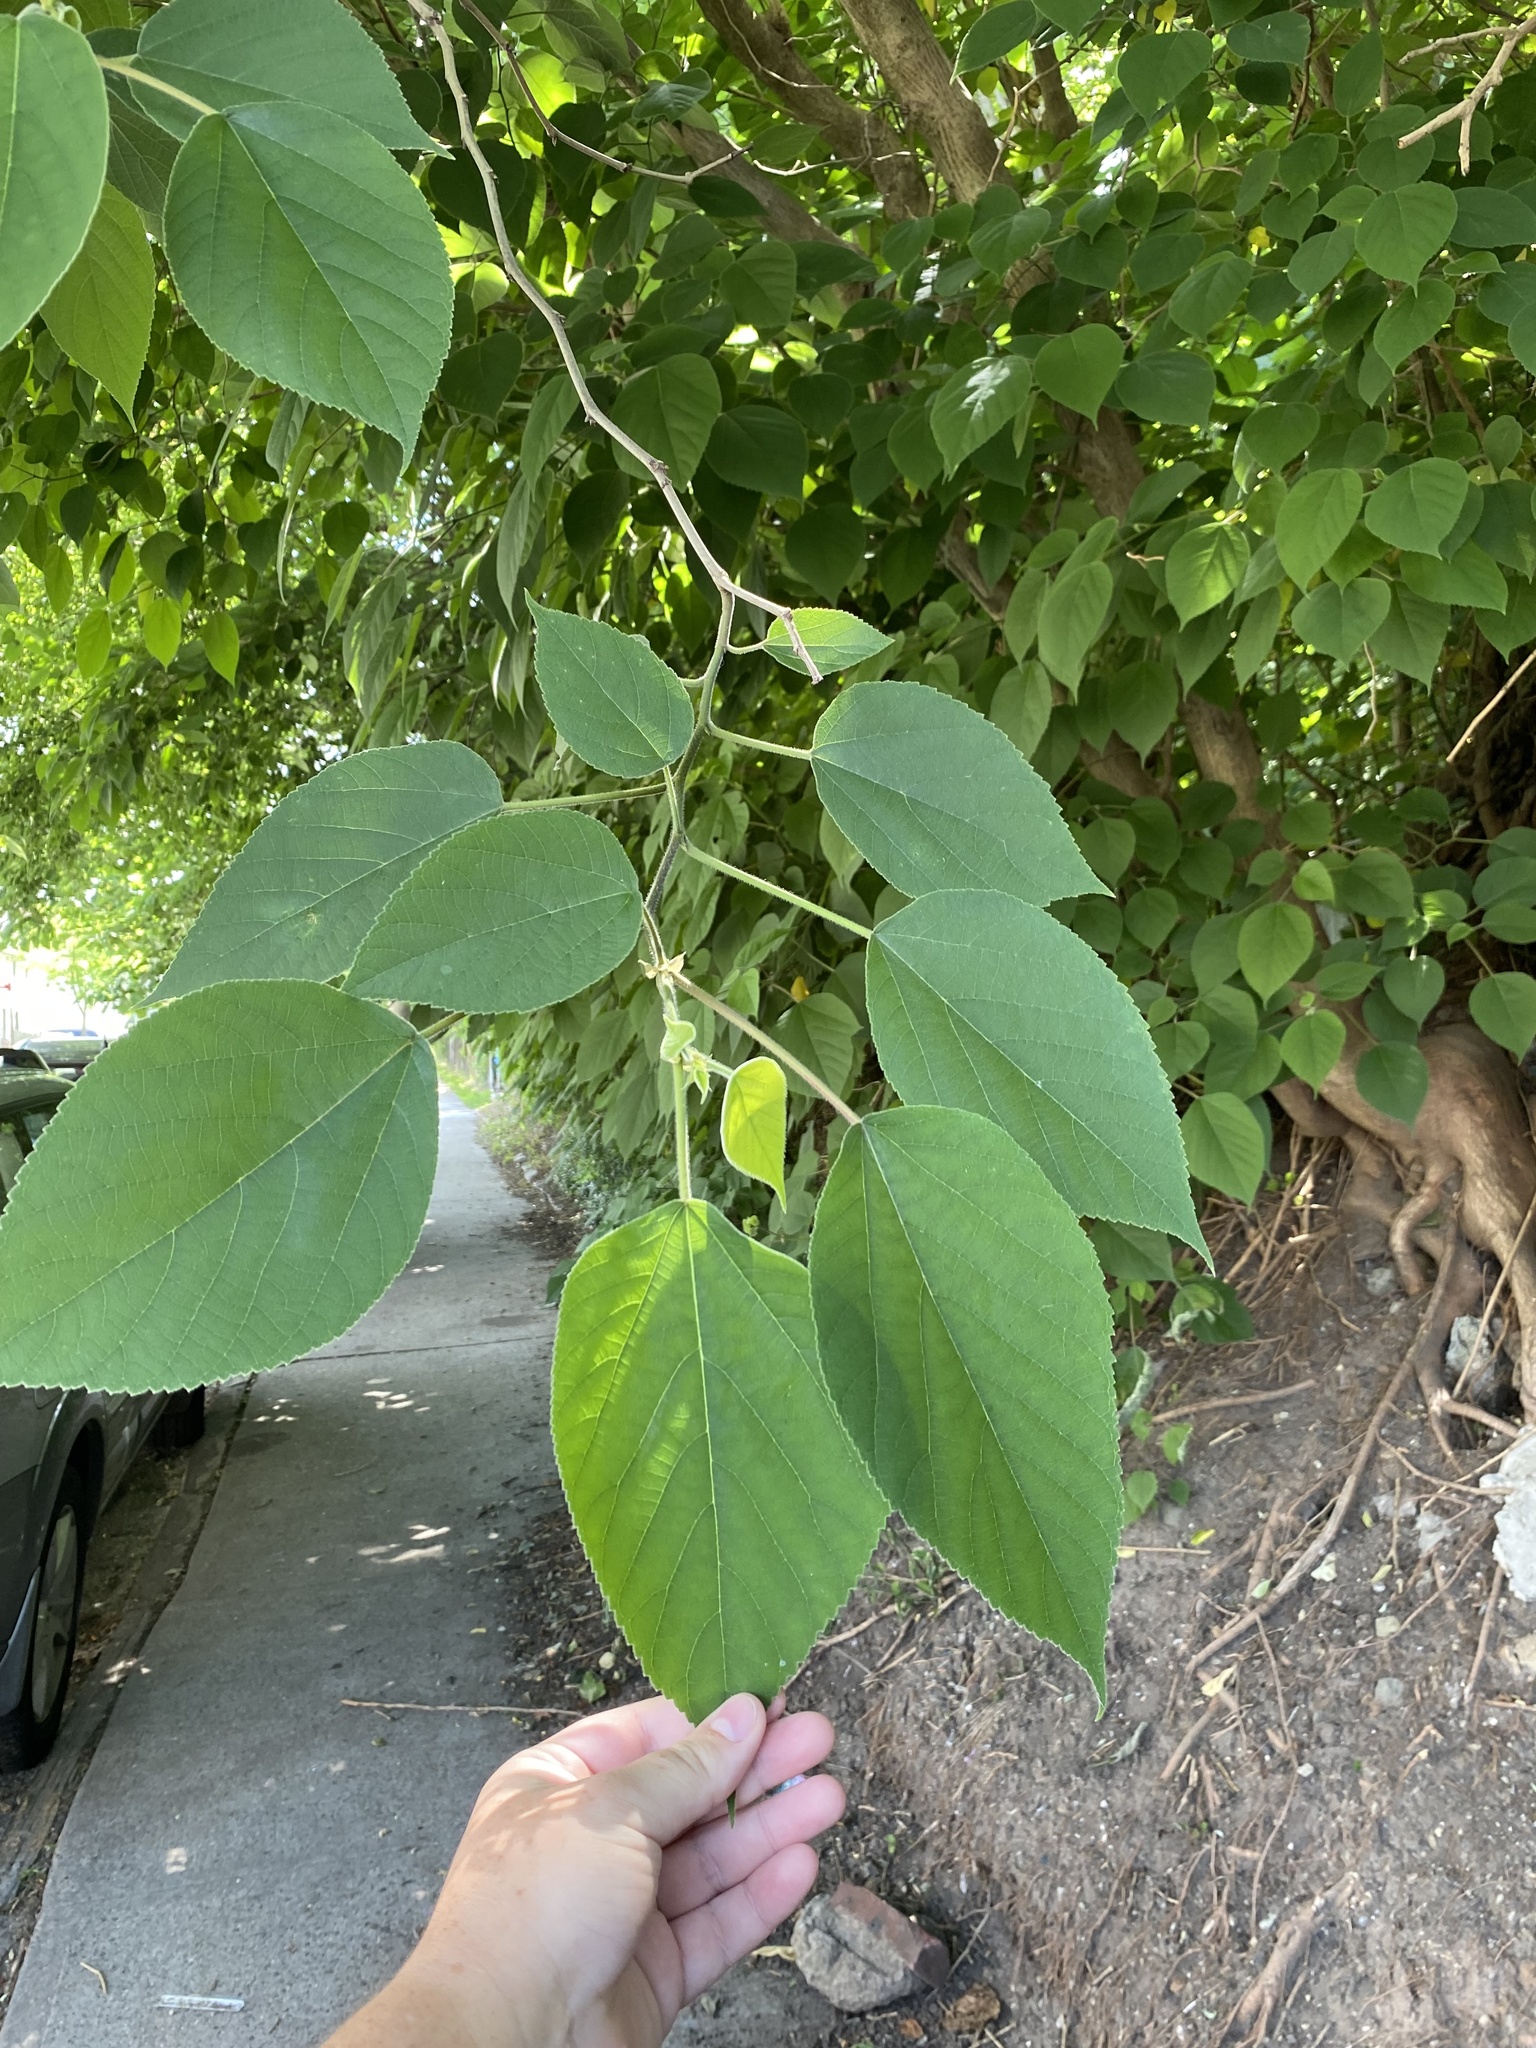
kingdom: Plantae
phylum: Tracheophyta
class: Magnoliopsida
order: Rosales
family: Moraceae
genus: Broussonetia
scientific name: Broussonetia papyrifera
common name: Paper mulberry
